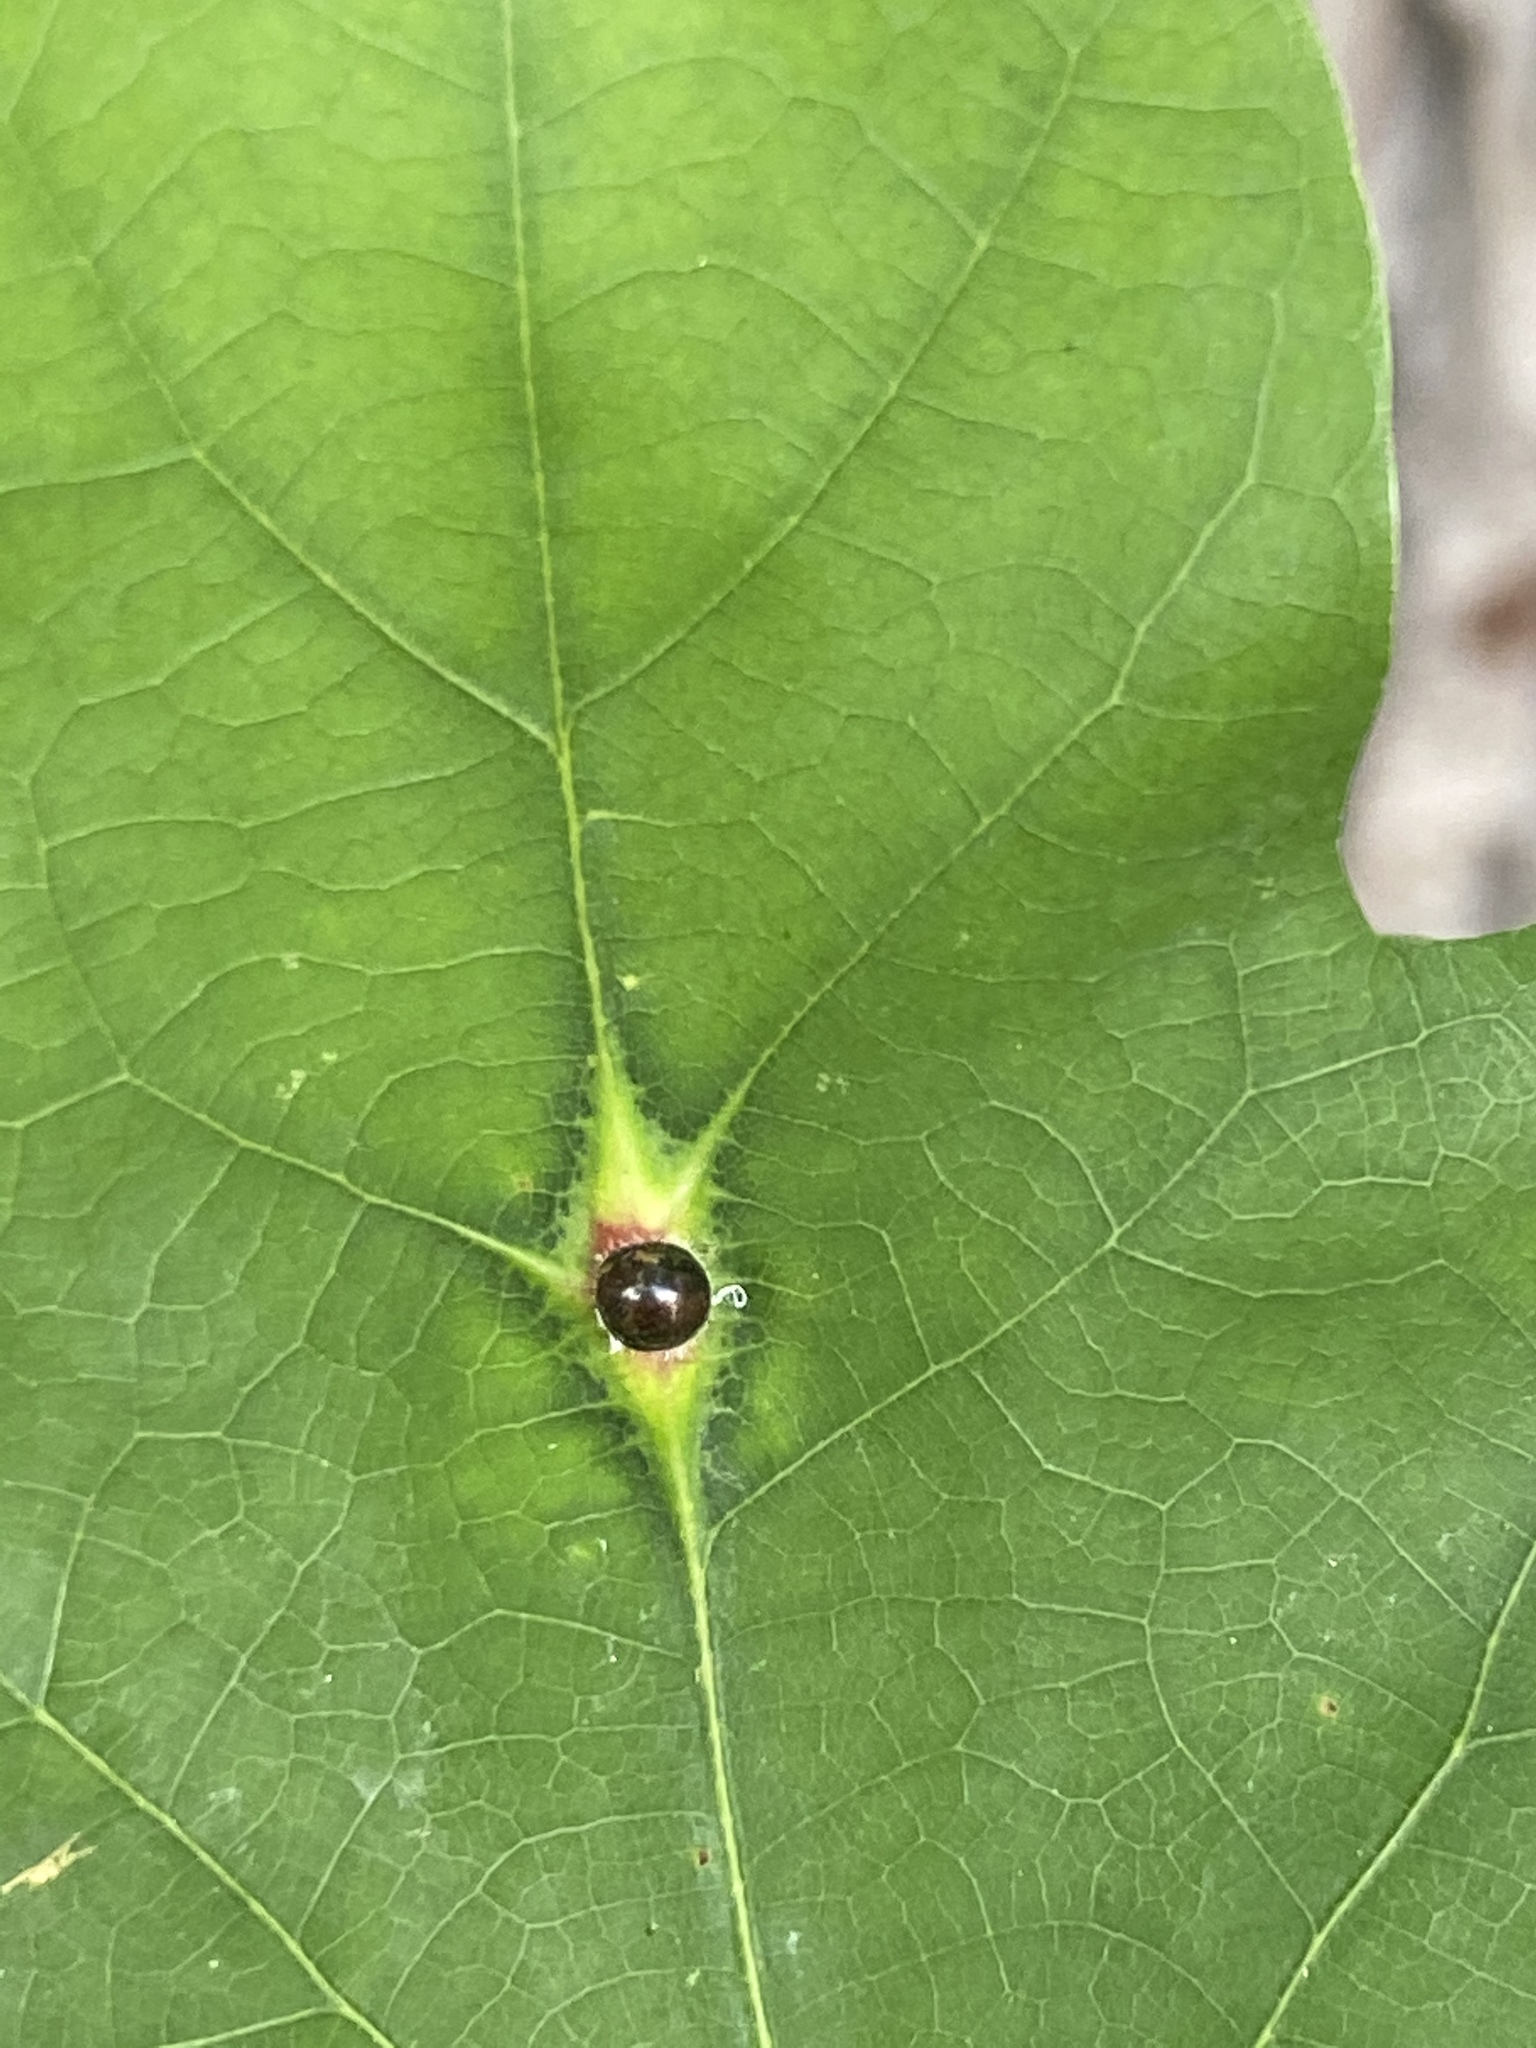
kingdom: Animalia
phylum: Arthropoda
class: Insecta
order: Hemiptera
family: Kermesidae
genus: Nanokermes
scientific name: Nanokermes folium
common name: Leaf kermes
